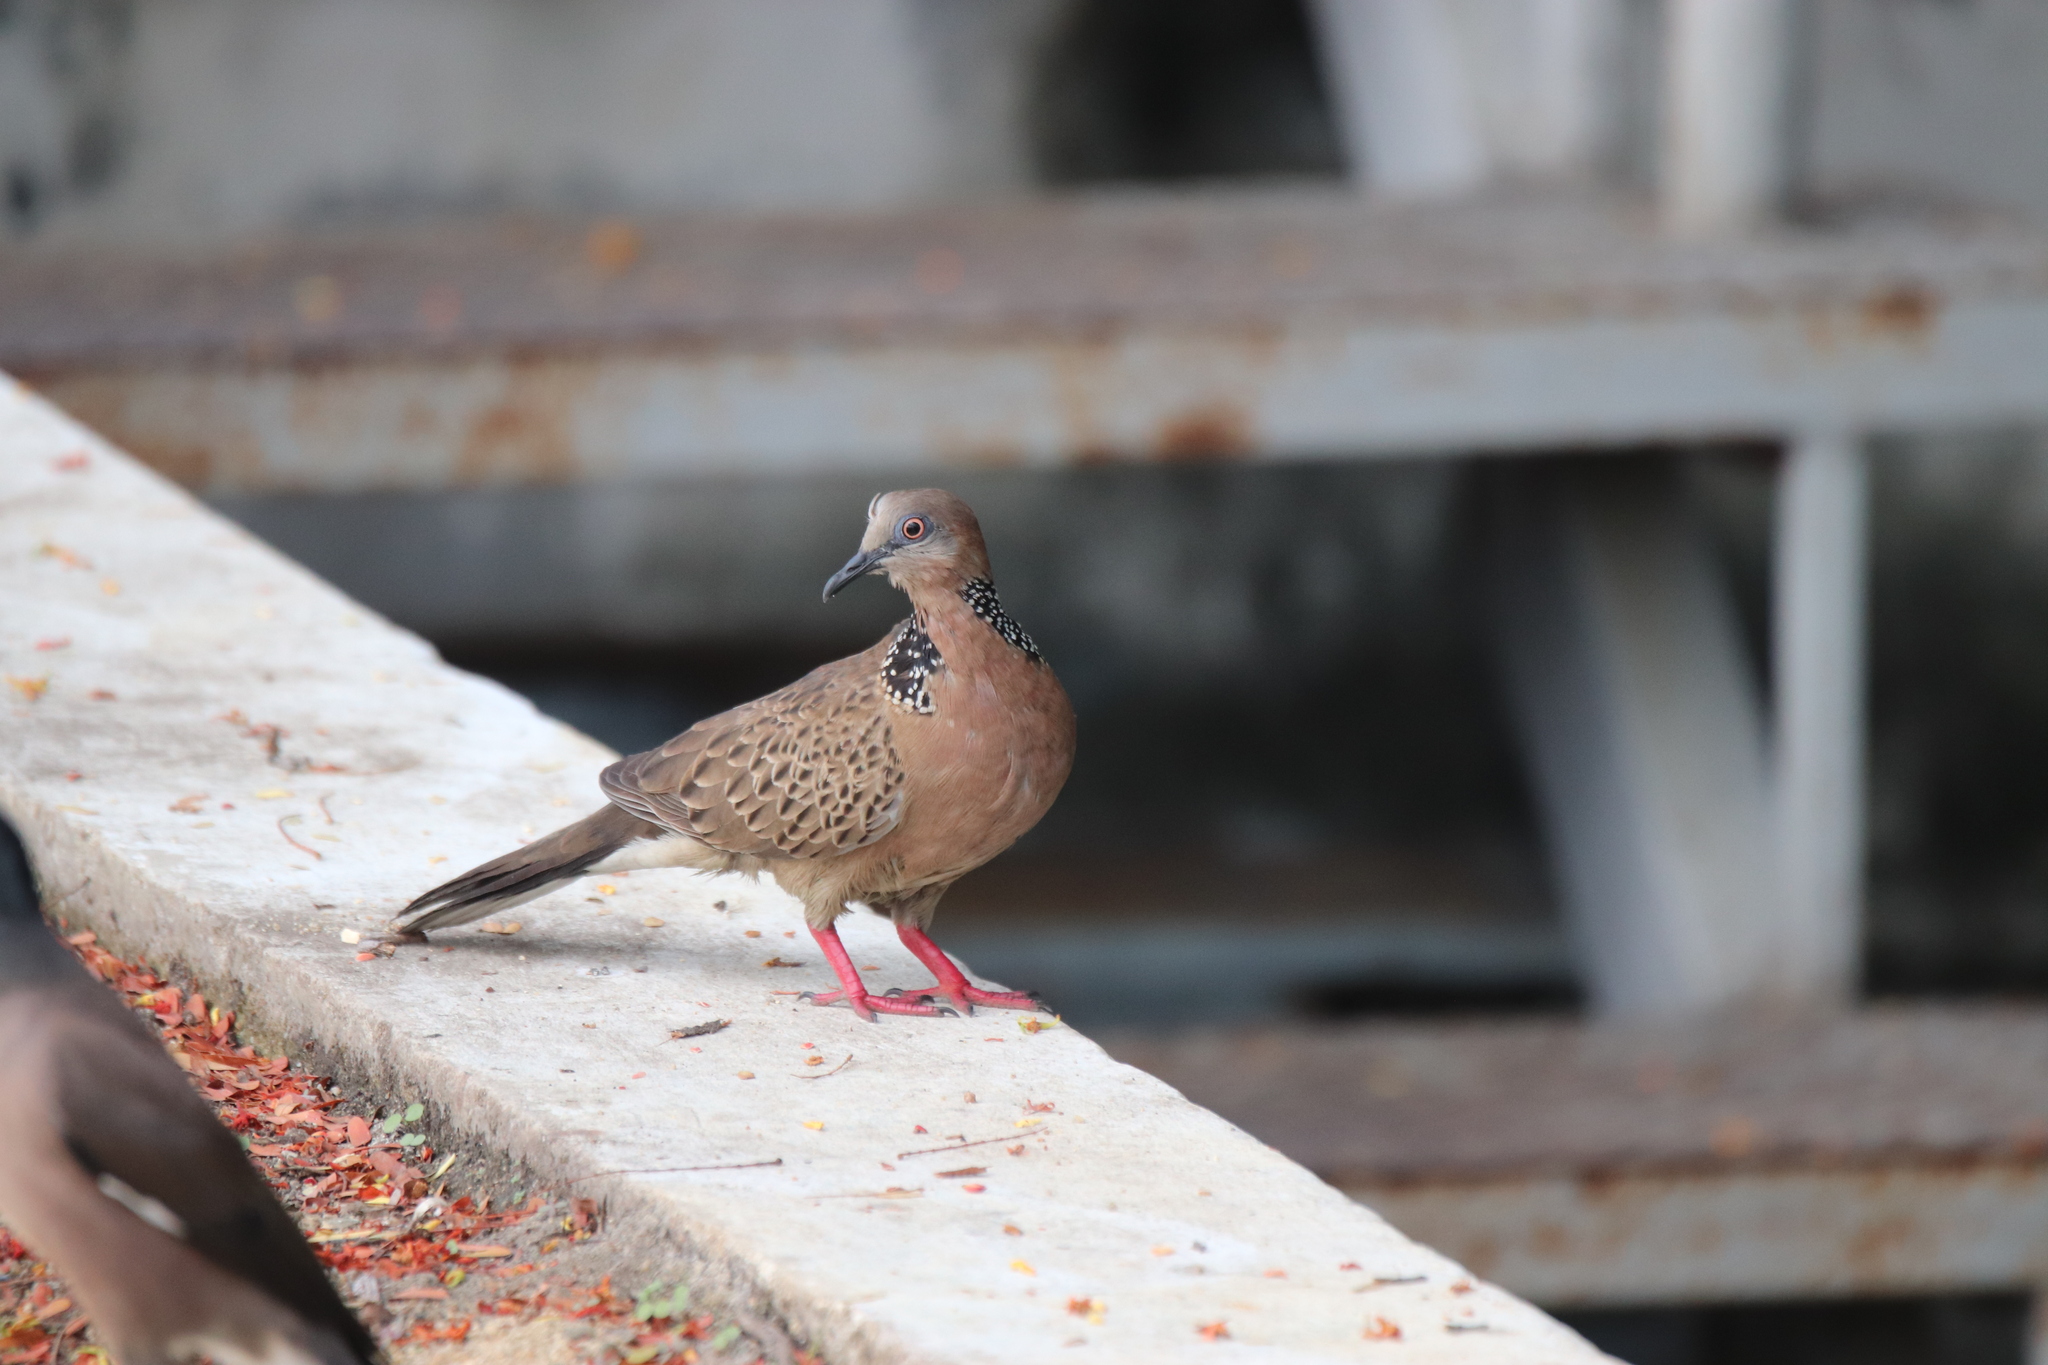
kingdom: Animalia
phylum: Chordata
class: Aves
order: Columbiformes
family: Columbidae
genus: Spilopelia
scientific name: Spilopelia chinensis
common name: Spotted dove
